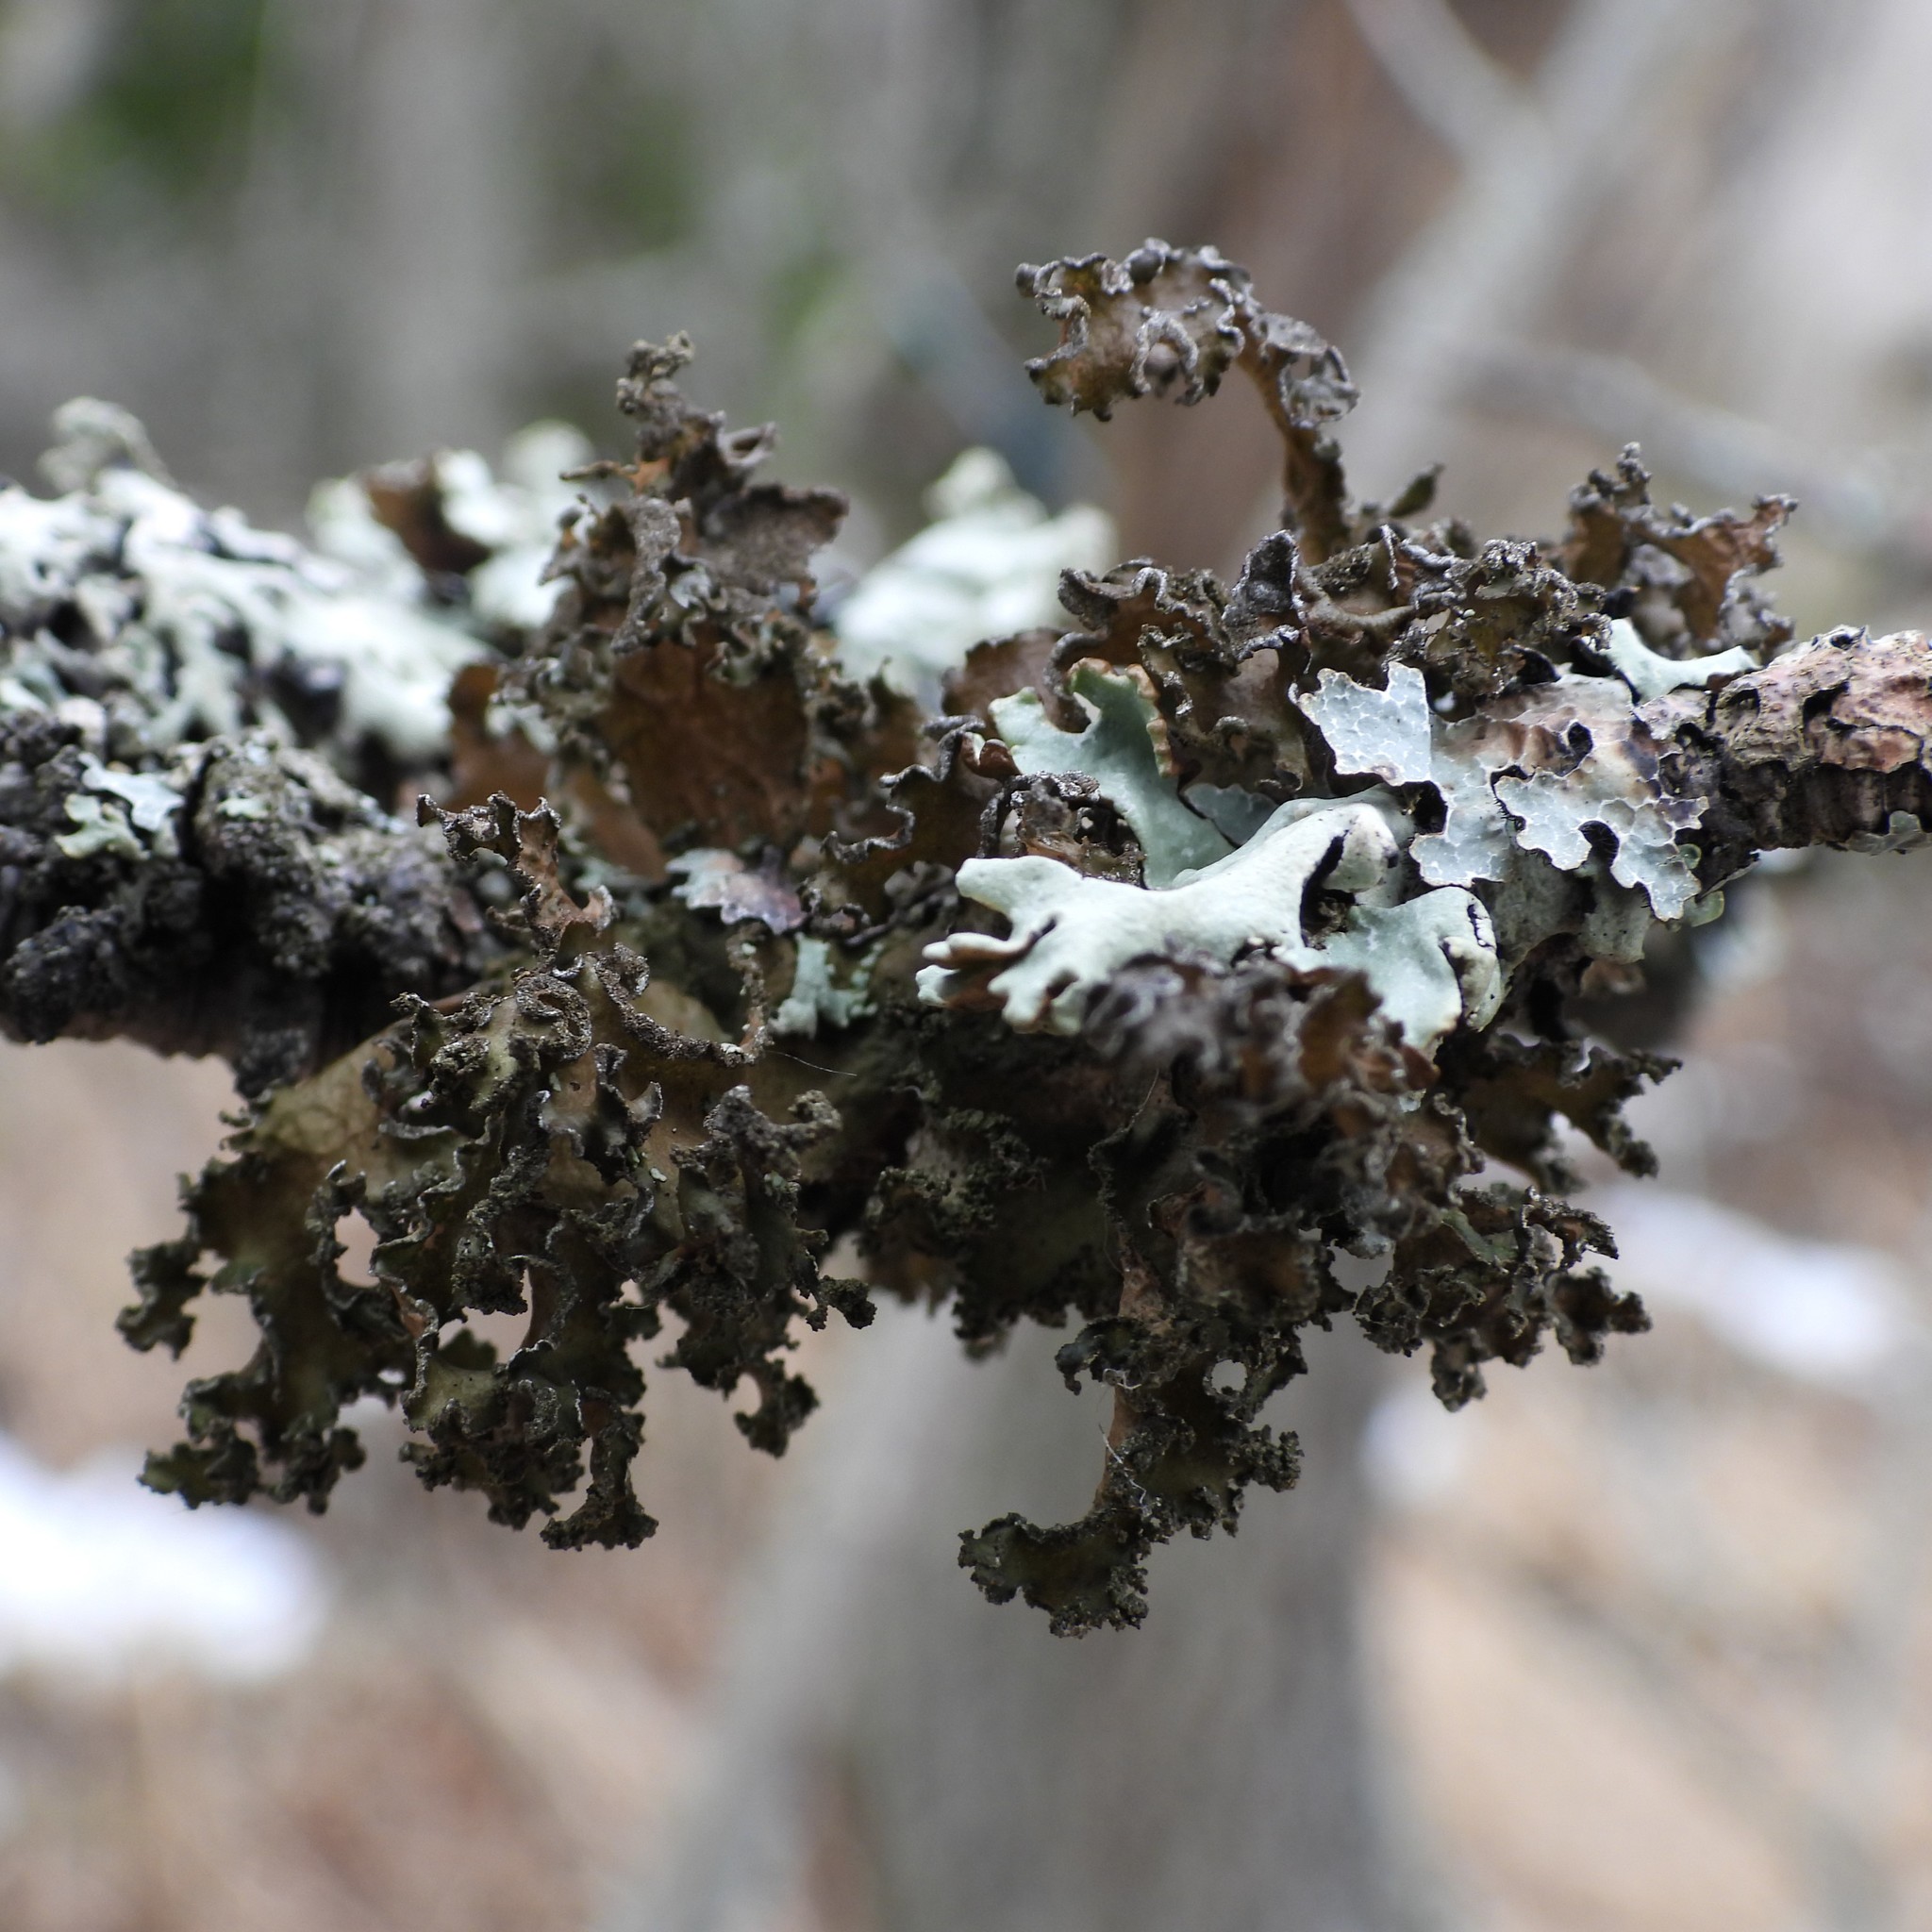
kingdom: Fungi
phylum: Ascomycota
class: Lecanoromycetes
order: Lecanorales
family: Parmeliaceae
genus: Nephromopsis
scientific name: Nephromopsis chlorophylla
